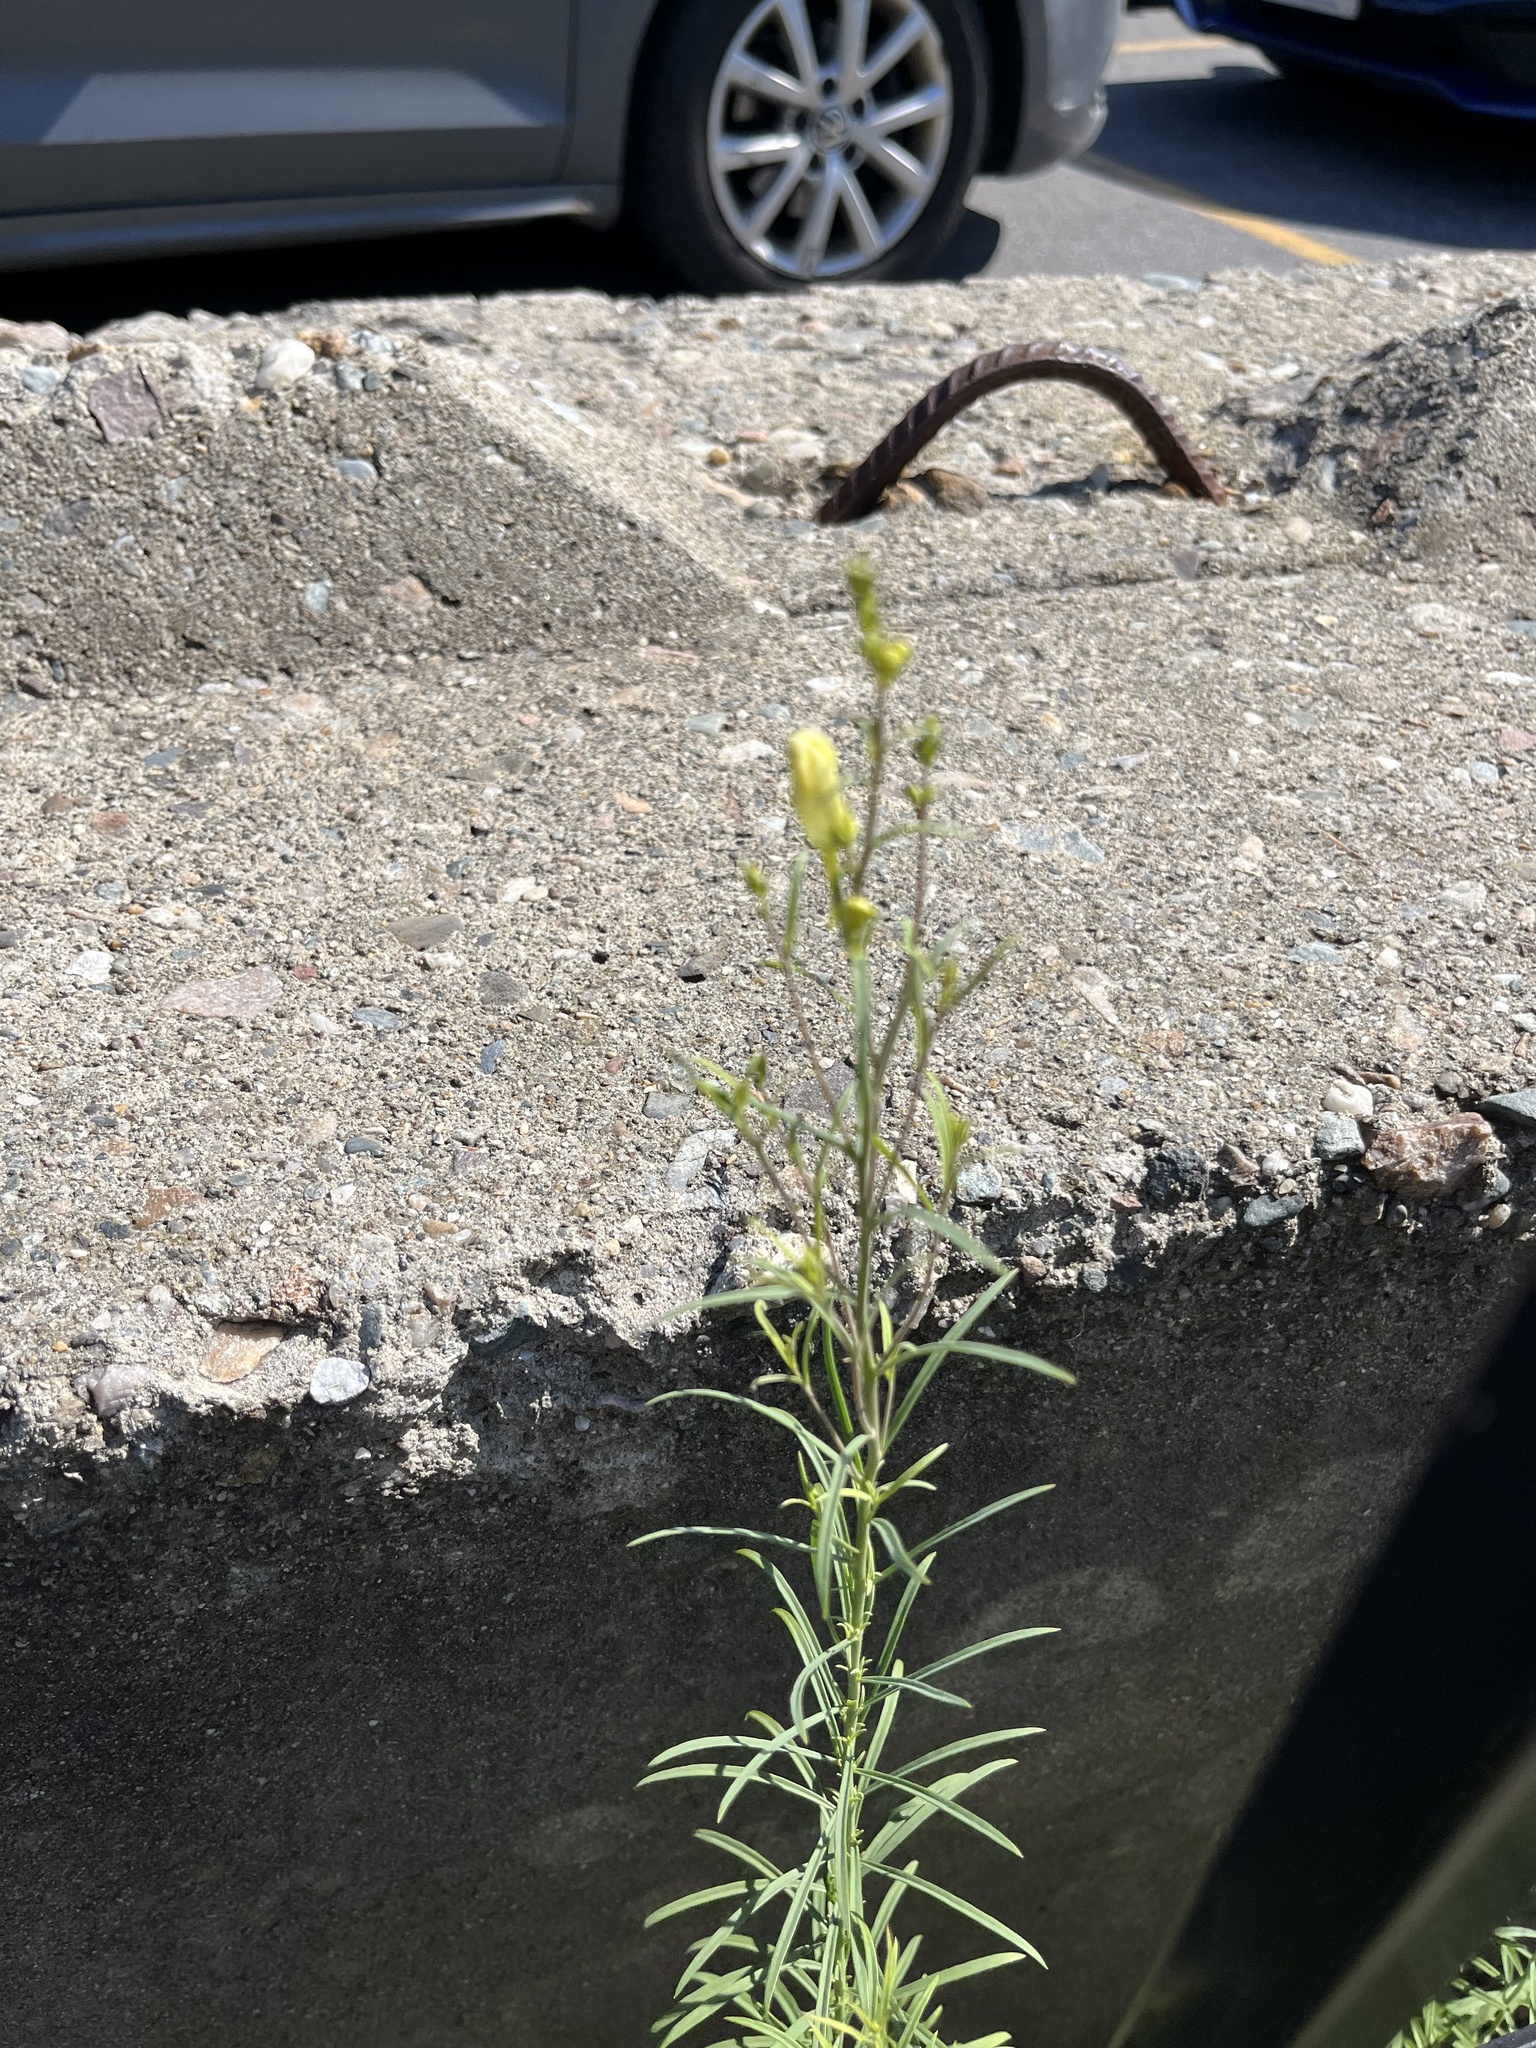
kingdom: Plantae
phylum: Tracheophyta
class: Magnoliopsida
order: Lamiales
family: Plantaginaceae
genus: Linaria
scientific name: Linaria vulgaris
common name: Butter and eggs
